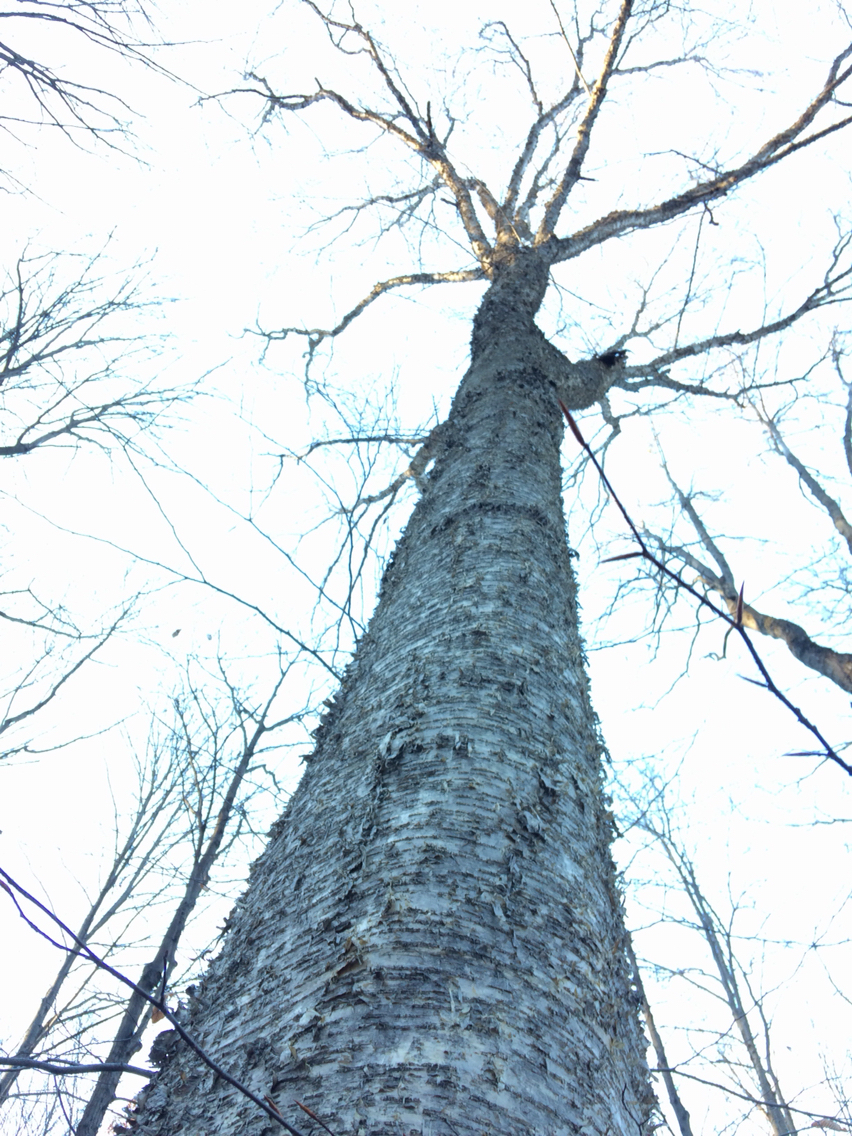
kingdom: Plantae
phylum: Tracheophyta
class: Magnoliopsida
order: Fagales
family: Betulaceae
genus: Betula
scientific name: Betula alleghaniensis
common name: Yellow birch
